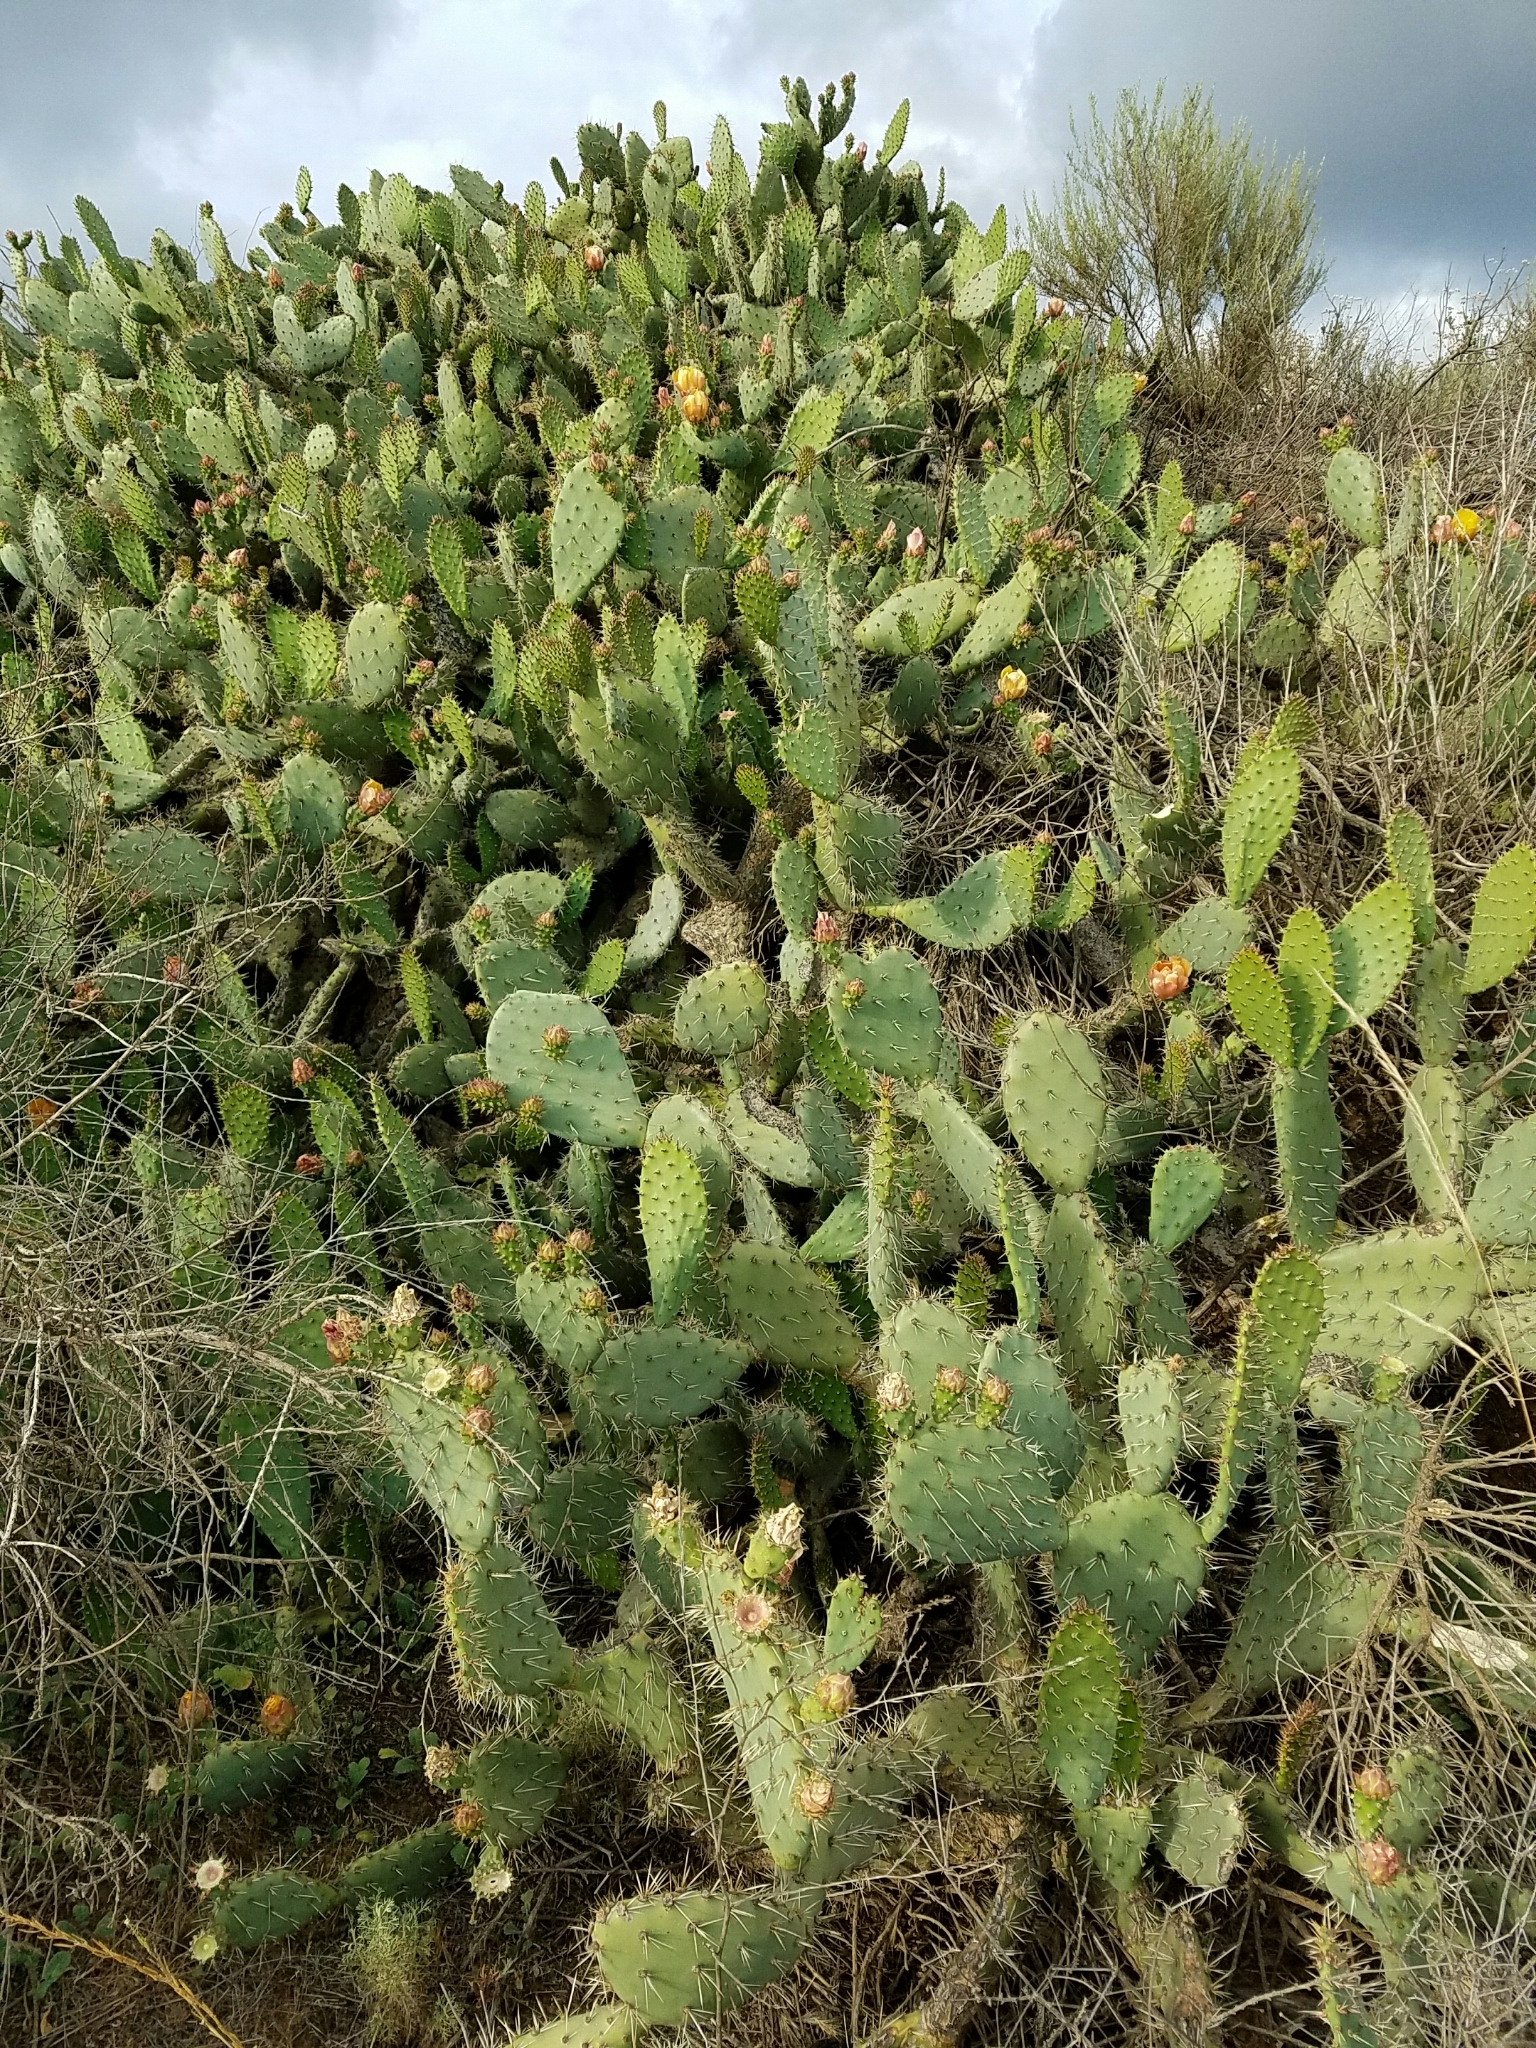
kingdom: Plantae
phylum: Tracheophyta
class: Magnoliopsida
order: Caryophyllales
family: Cactaceae
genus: Opuntia
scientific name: Opuntia littoralis
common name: Coastal prickly-pear
